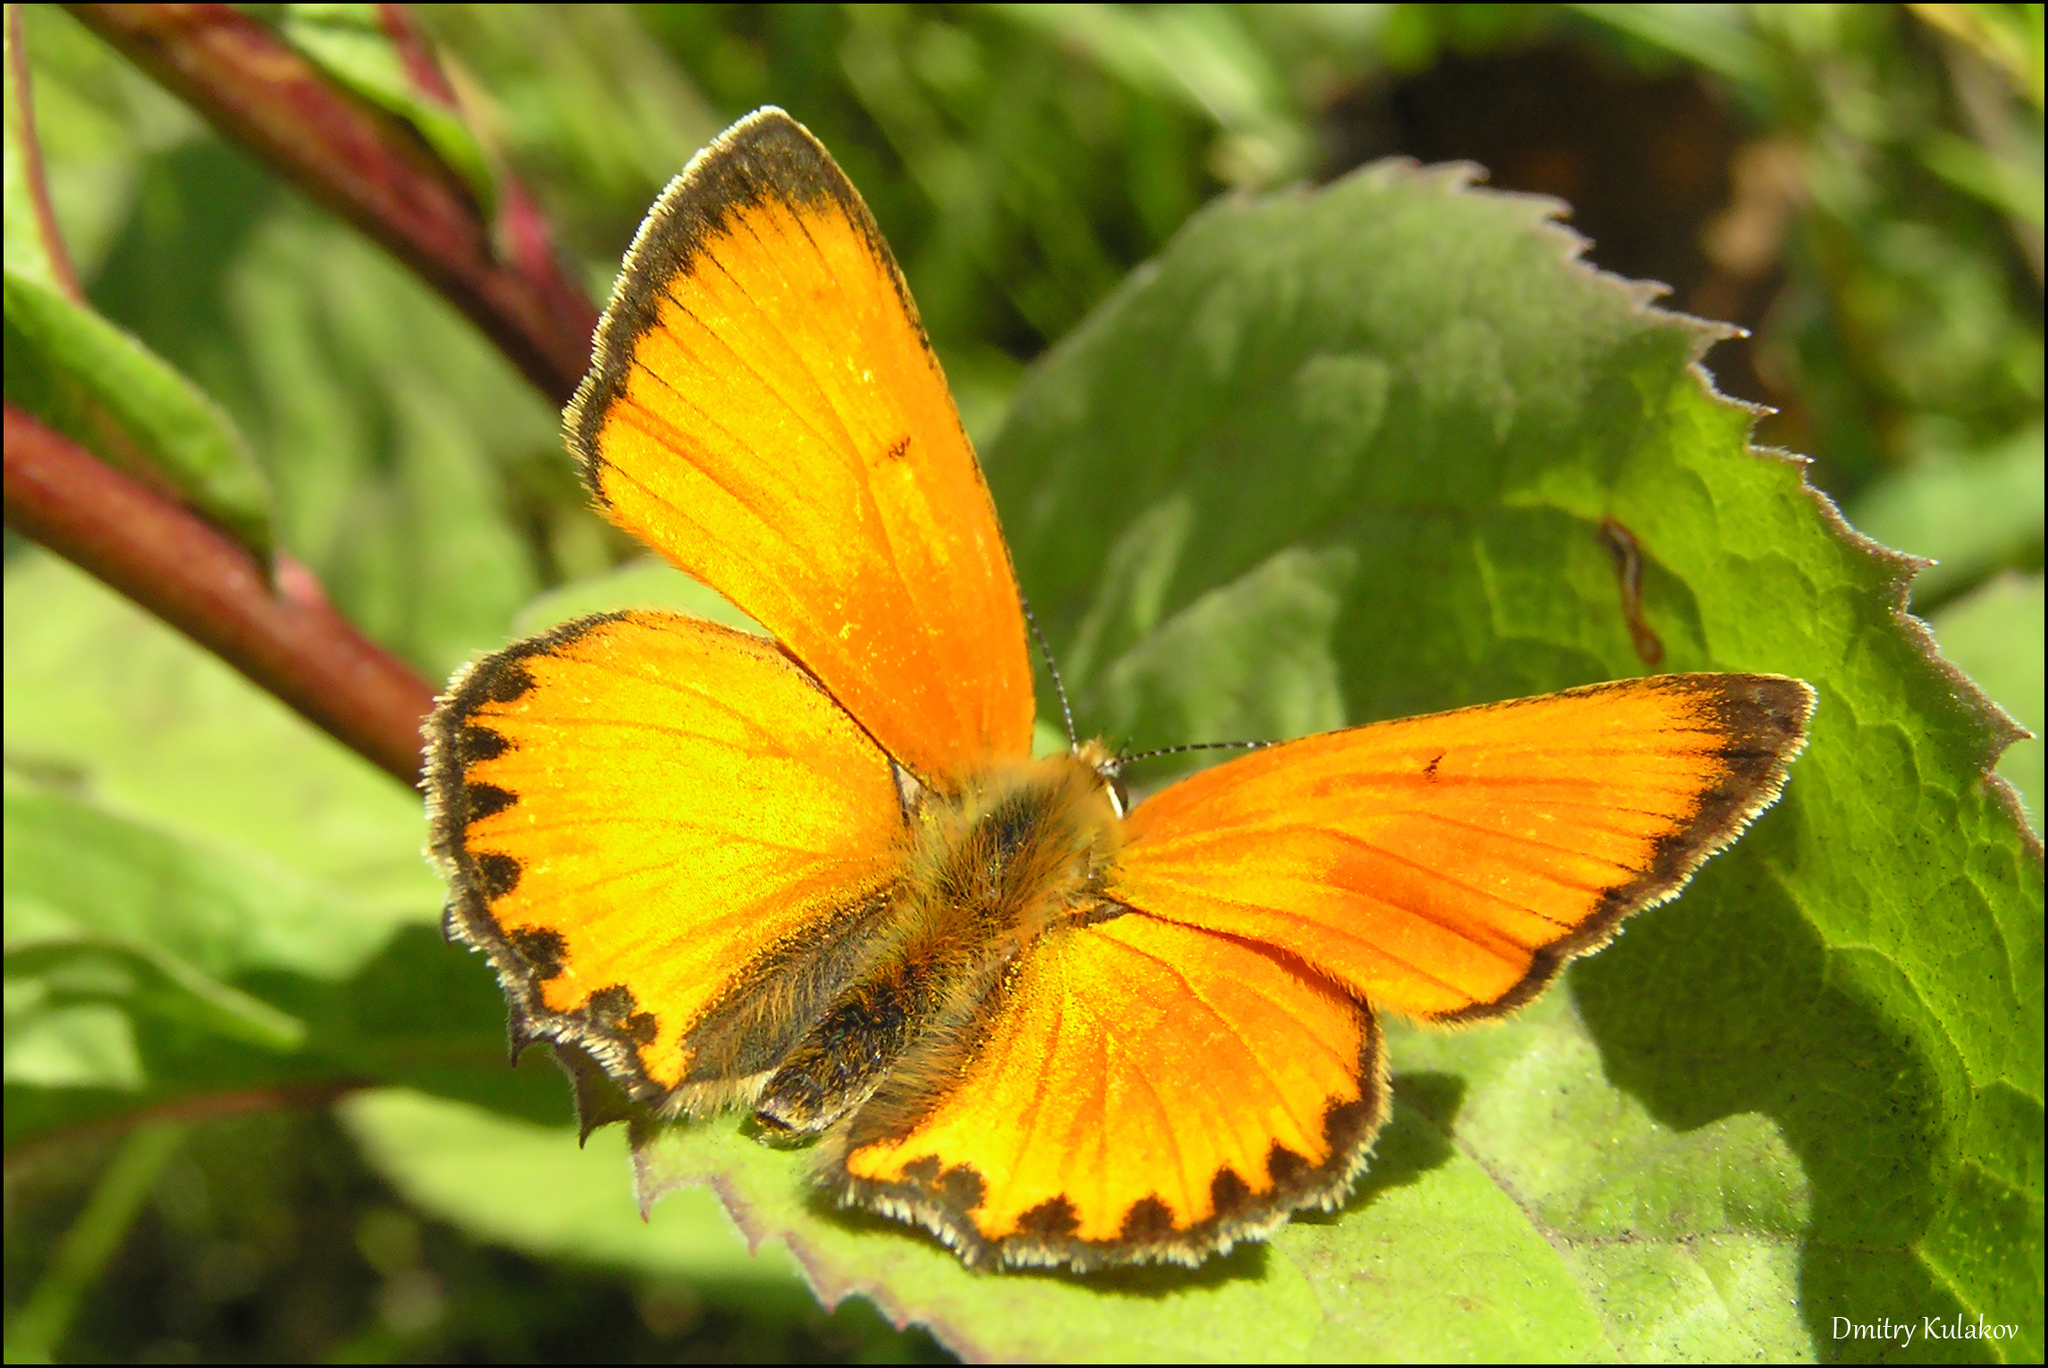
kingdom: Animalia
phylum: Arthropoda
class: Insecta
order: Lepidoptera
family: Lycaenidae
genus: Lycaena
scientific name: Lycaena virgaureae
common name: Scarce copper
